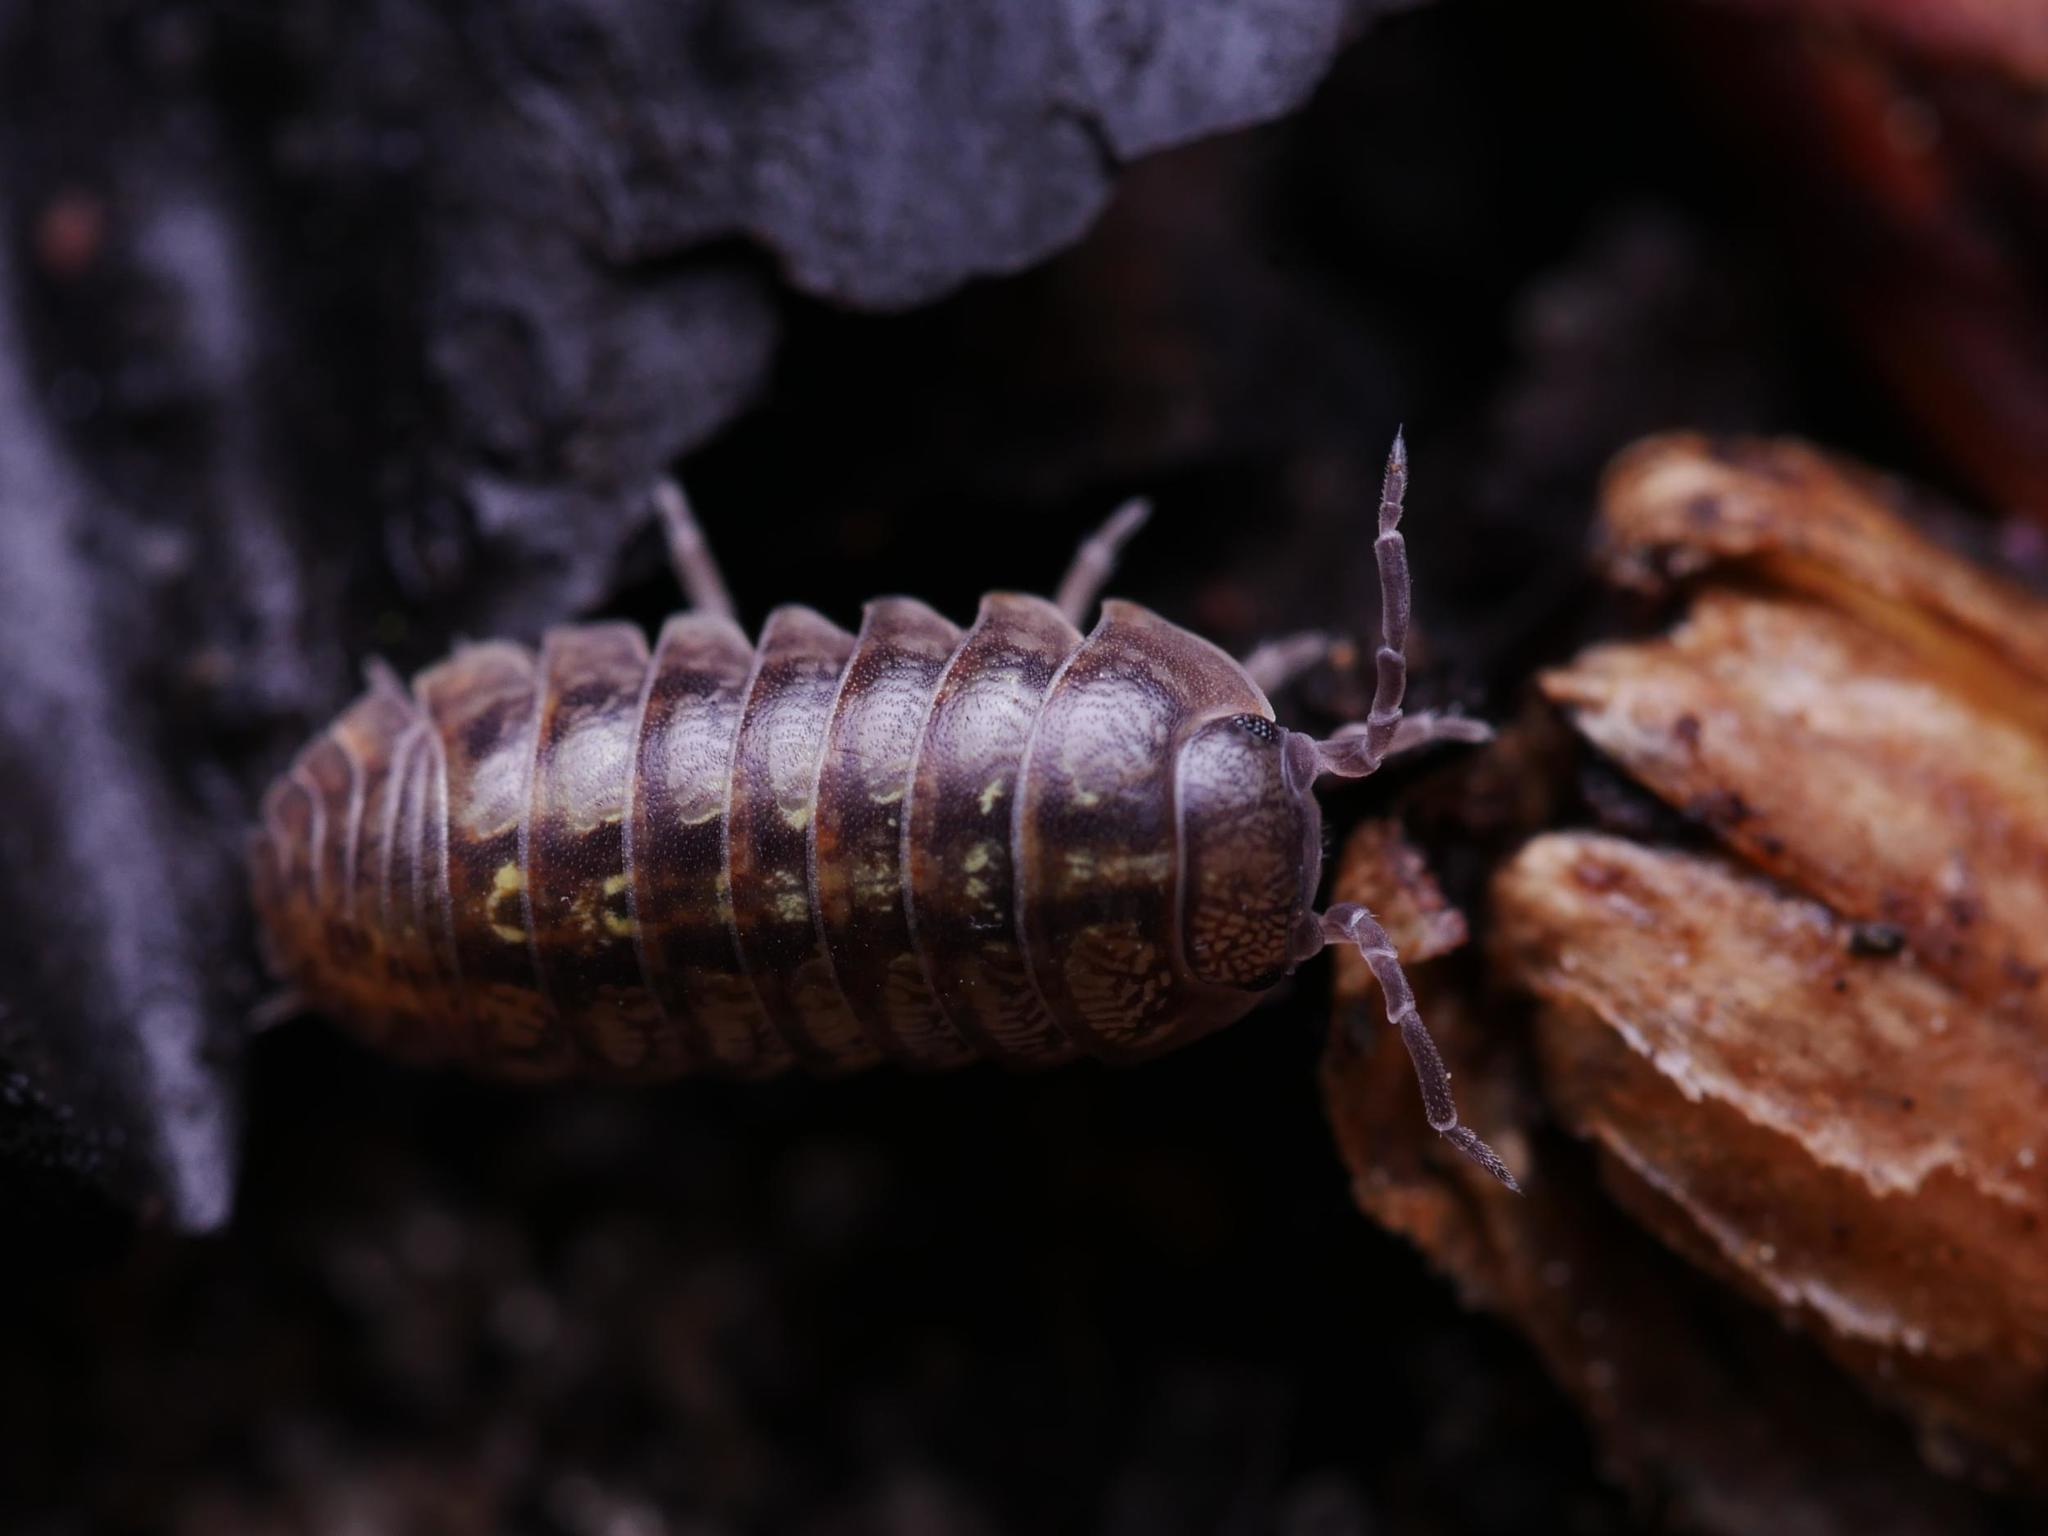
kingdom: Animalia
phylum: Arthropoda
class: Malacostraca
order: Isopoda
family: Armadillidiidae
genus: Armadillidium
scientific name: Armadillidium vulgare
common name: Common pill woodlouse
